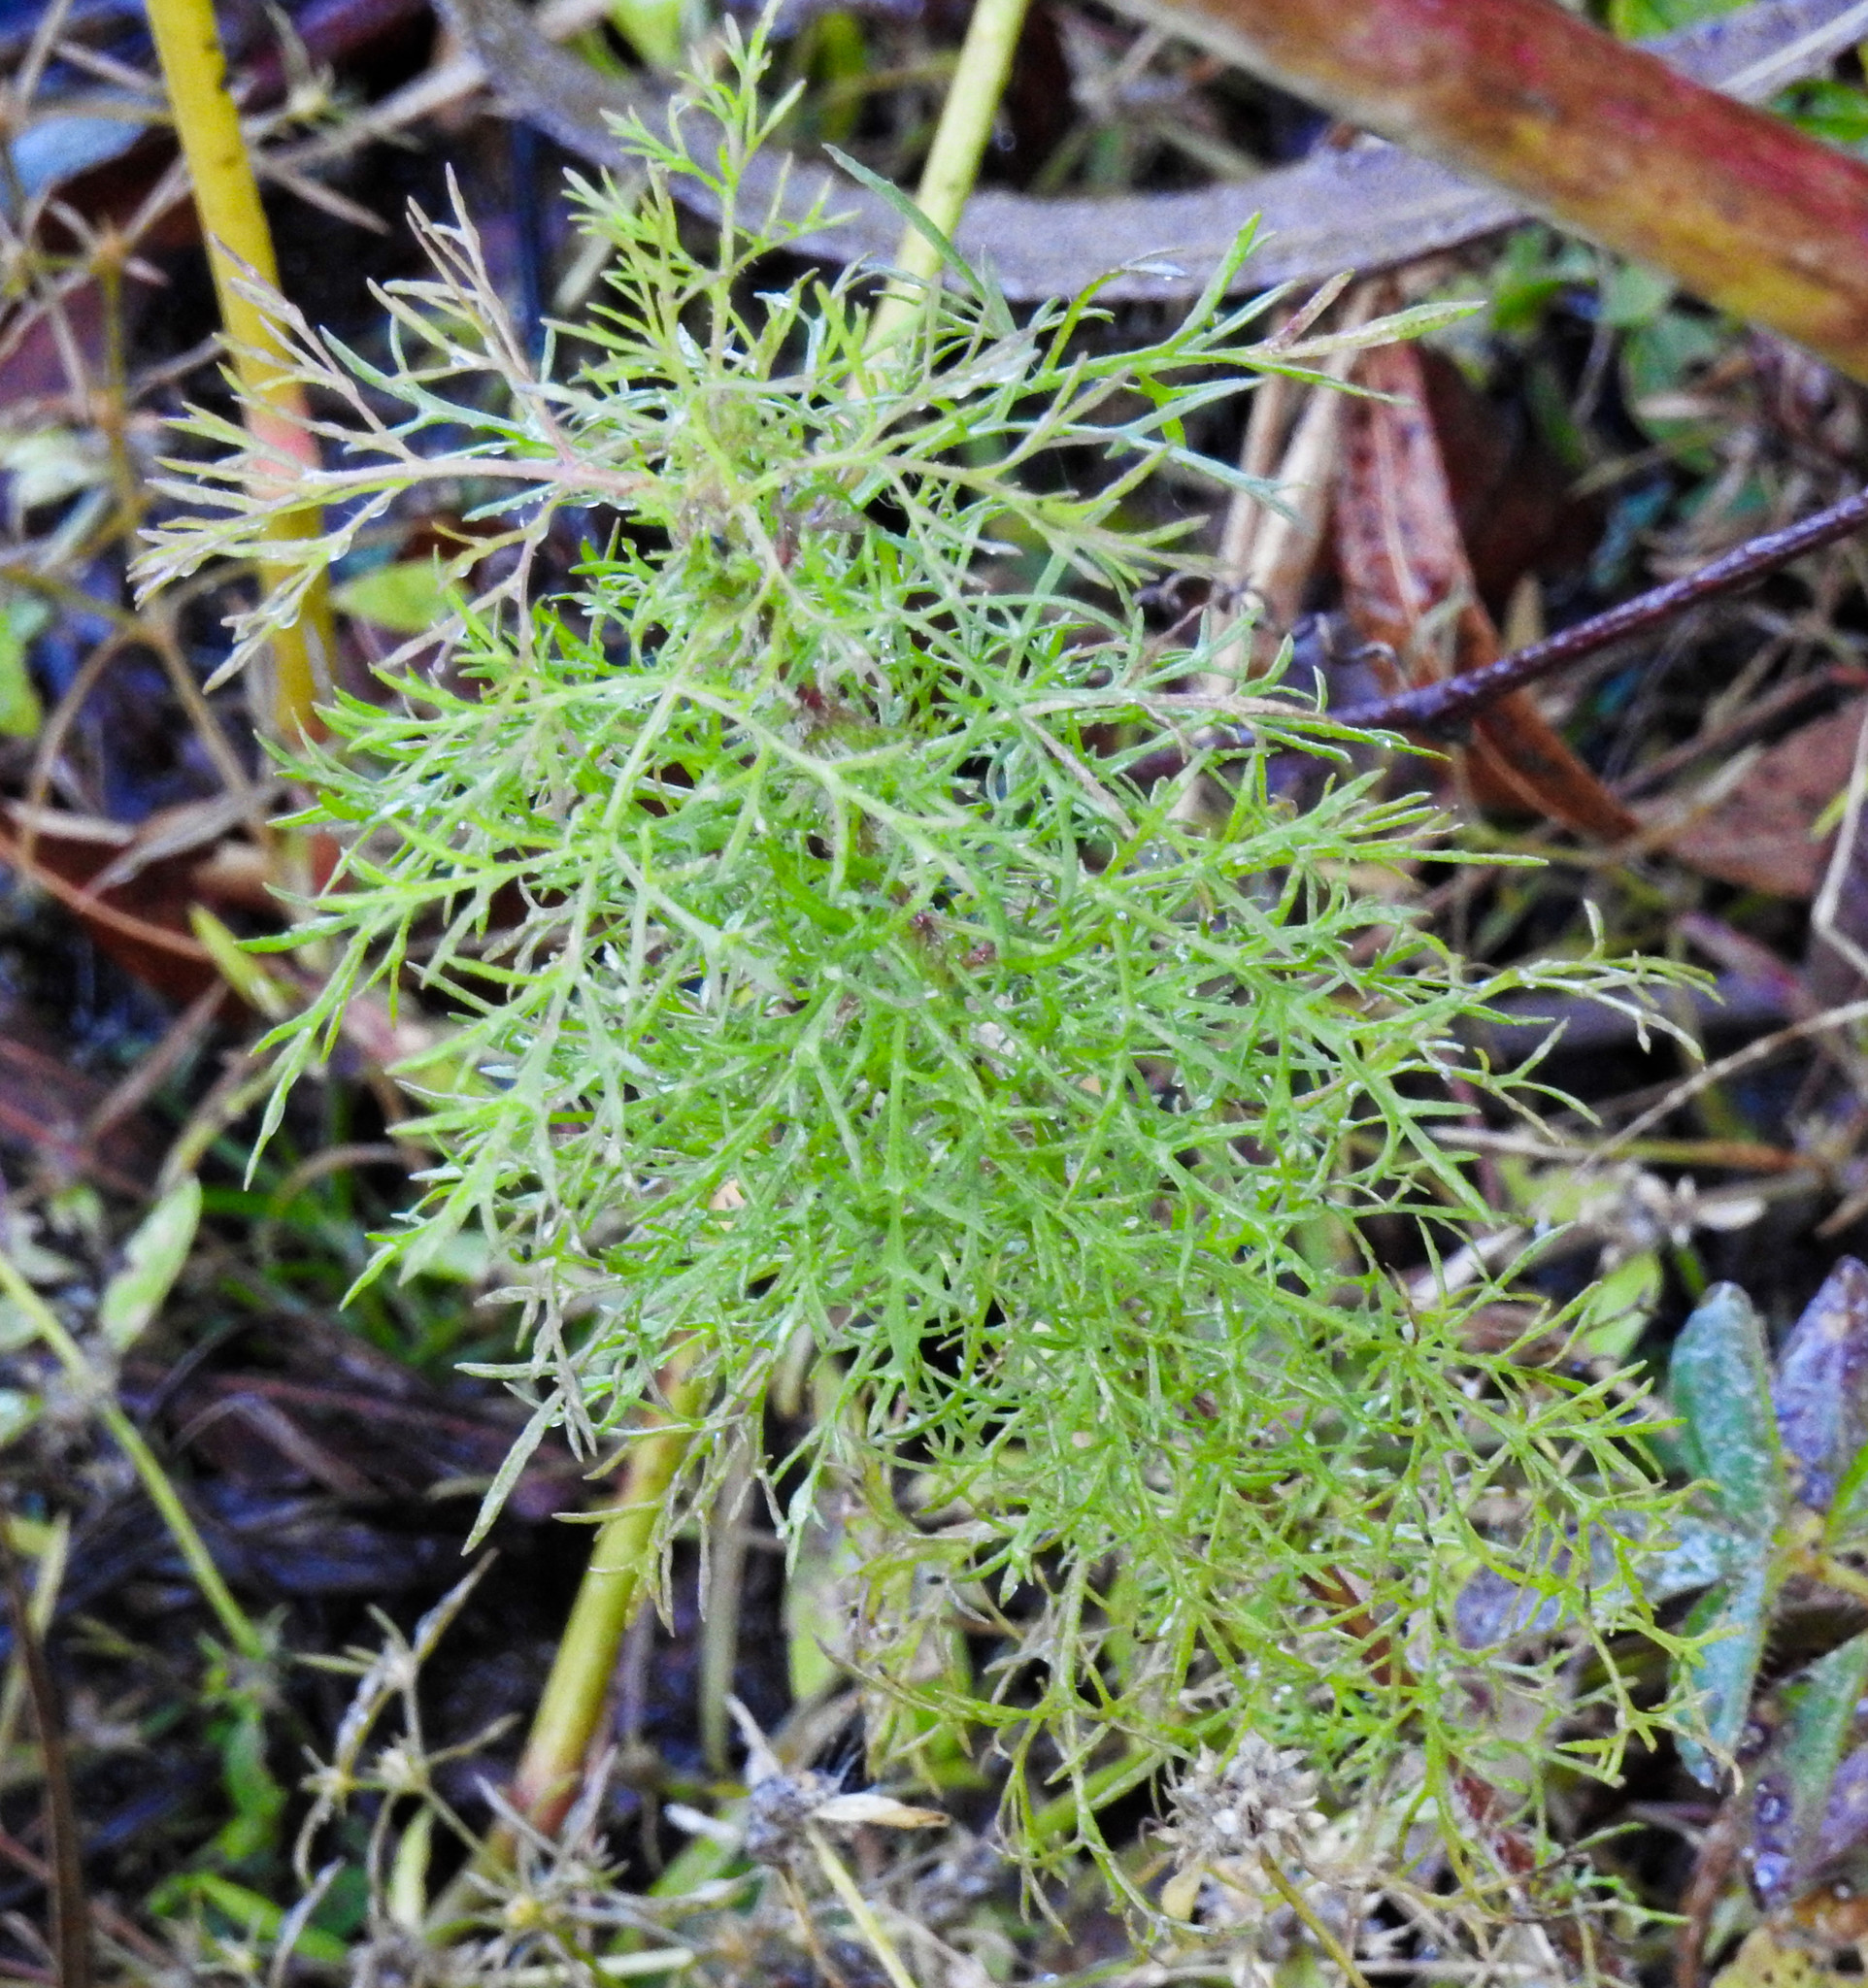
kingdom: Plantae
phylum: Tracheophyta
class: Magnoliopsida
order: Apiales
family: Apiaceae
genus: Foeniculum
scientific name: Foeniculum vulgare
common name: Fennel
